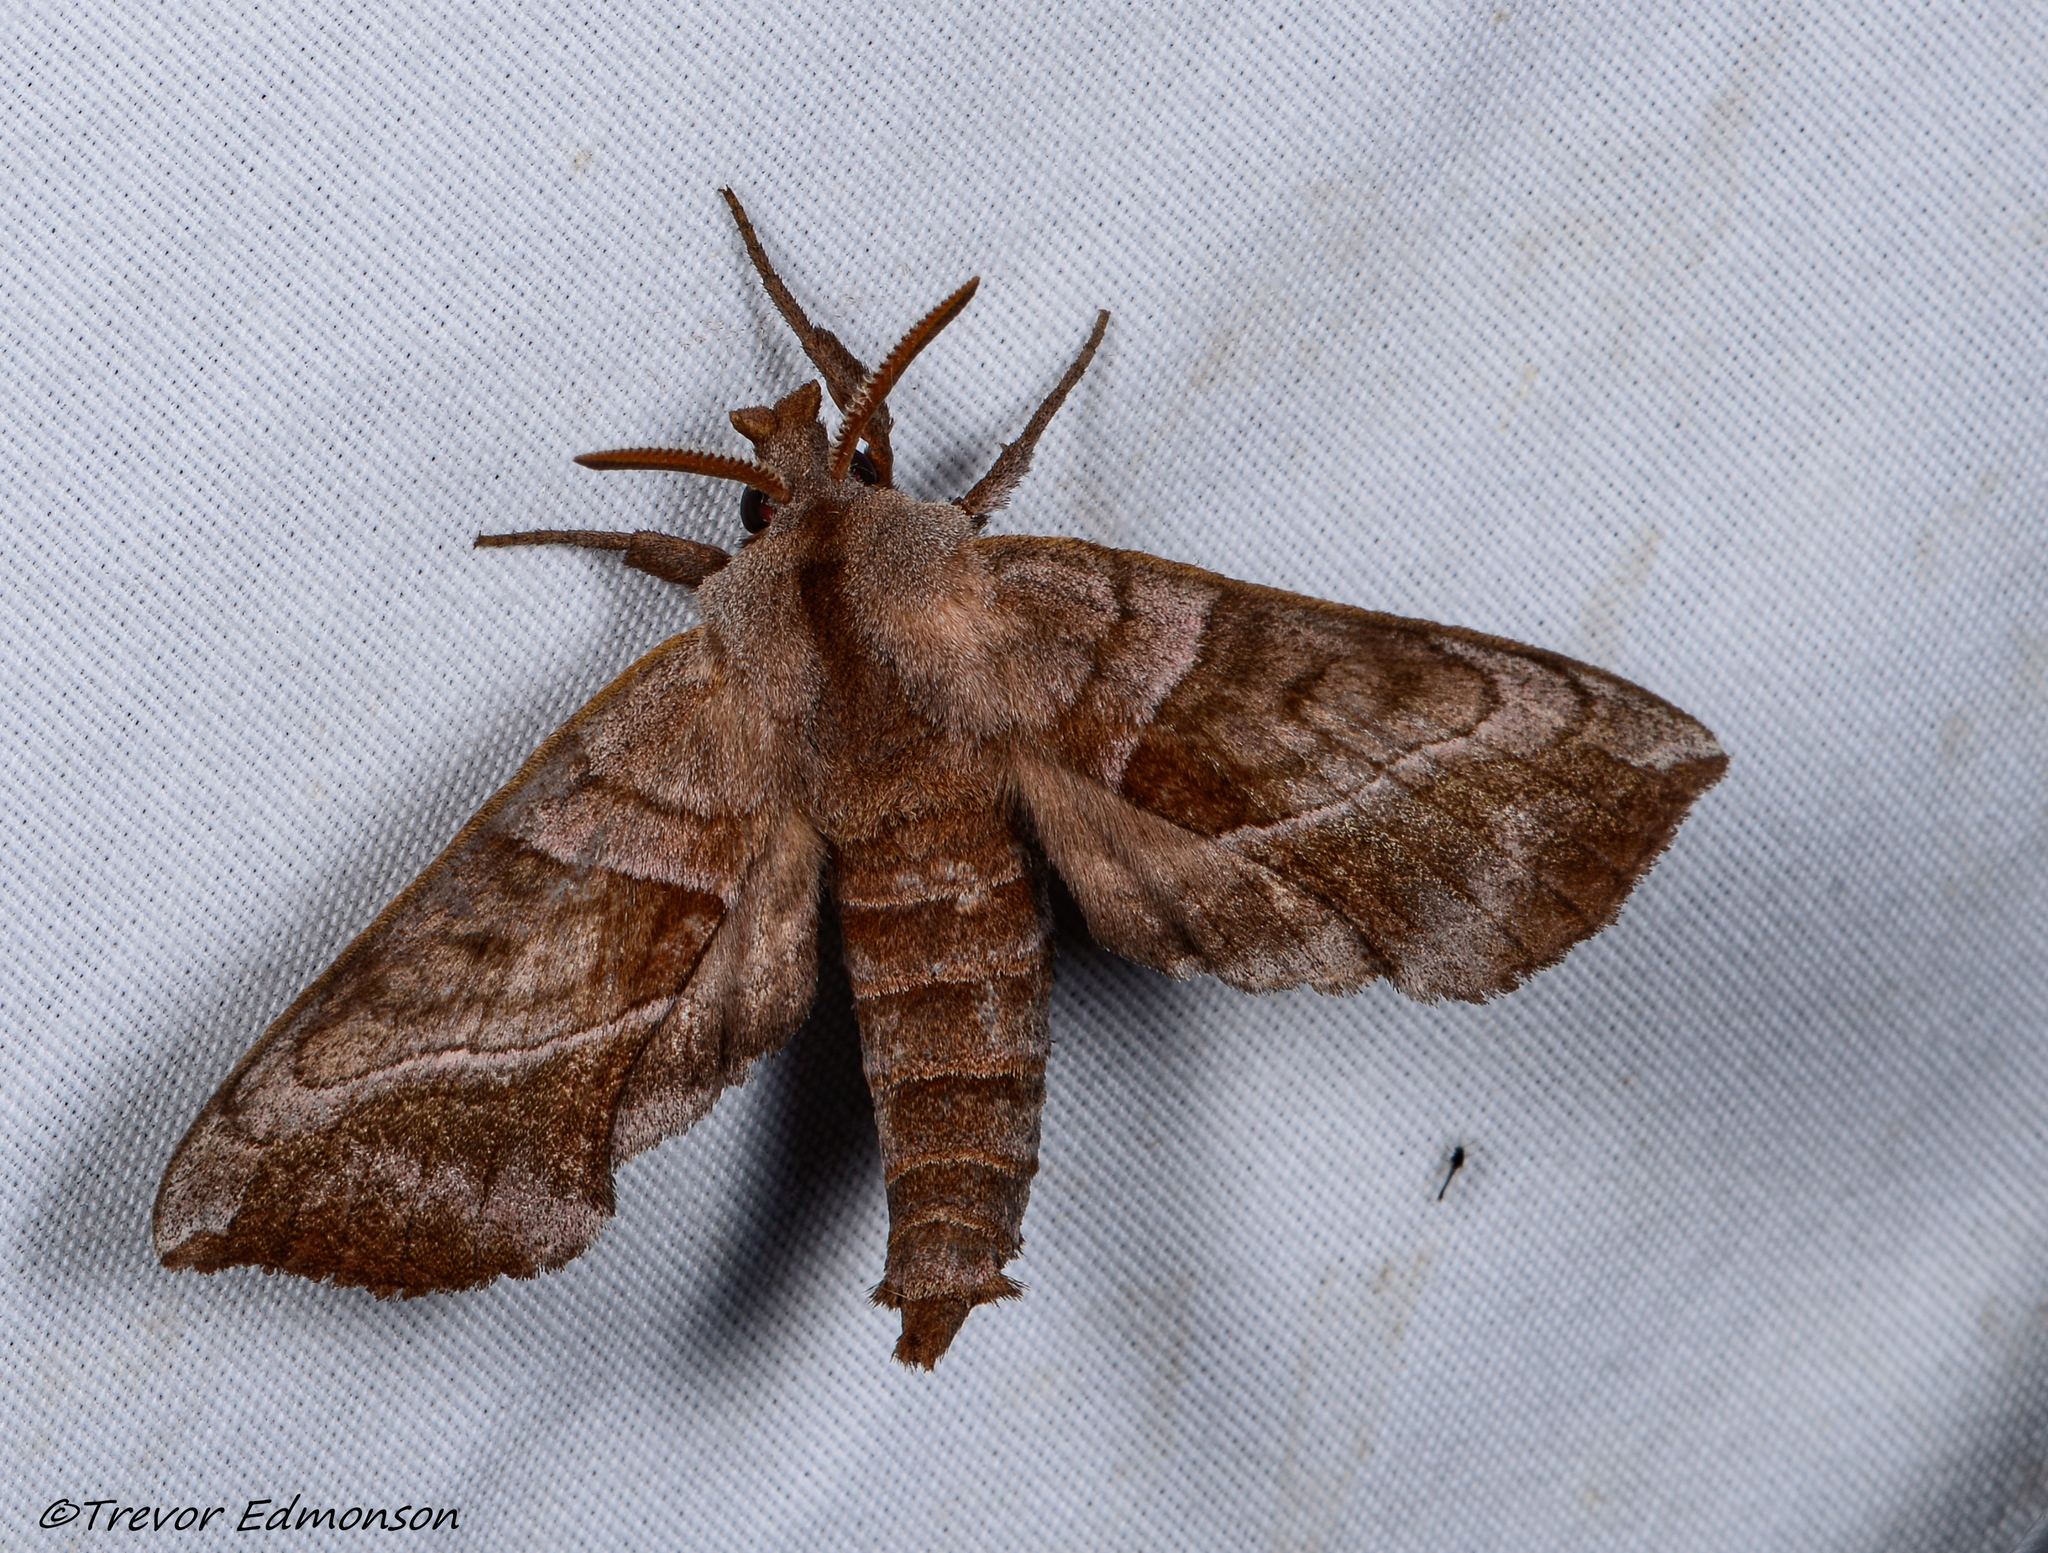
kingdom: Animalia
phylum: Arthropoda
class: Insecta
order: Lepidoptera
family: Sphingidae
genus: Amorpha
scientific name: Amorpha juglandis
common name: Walnut sphinx
